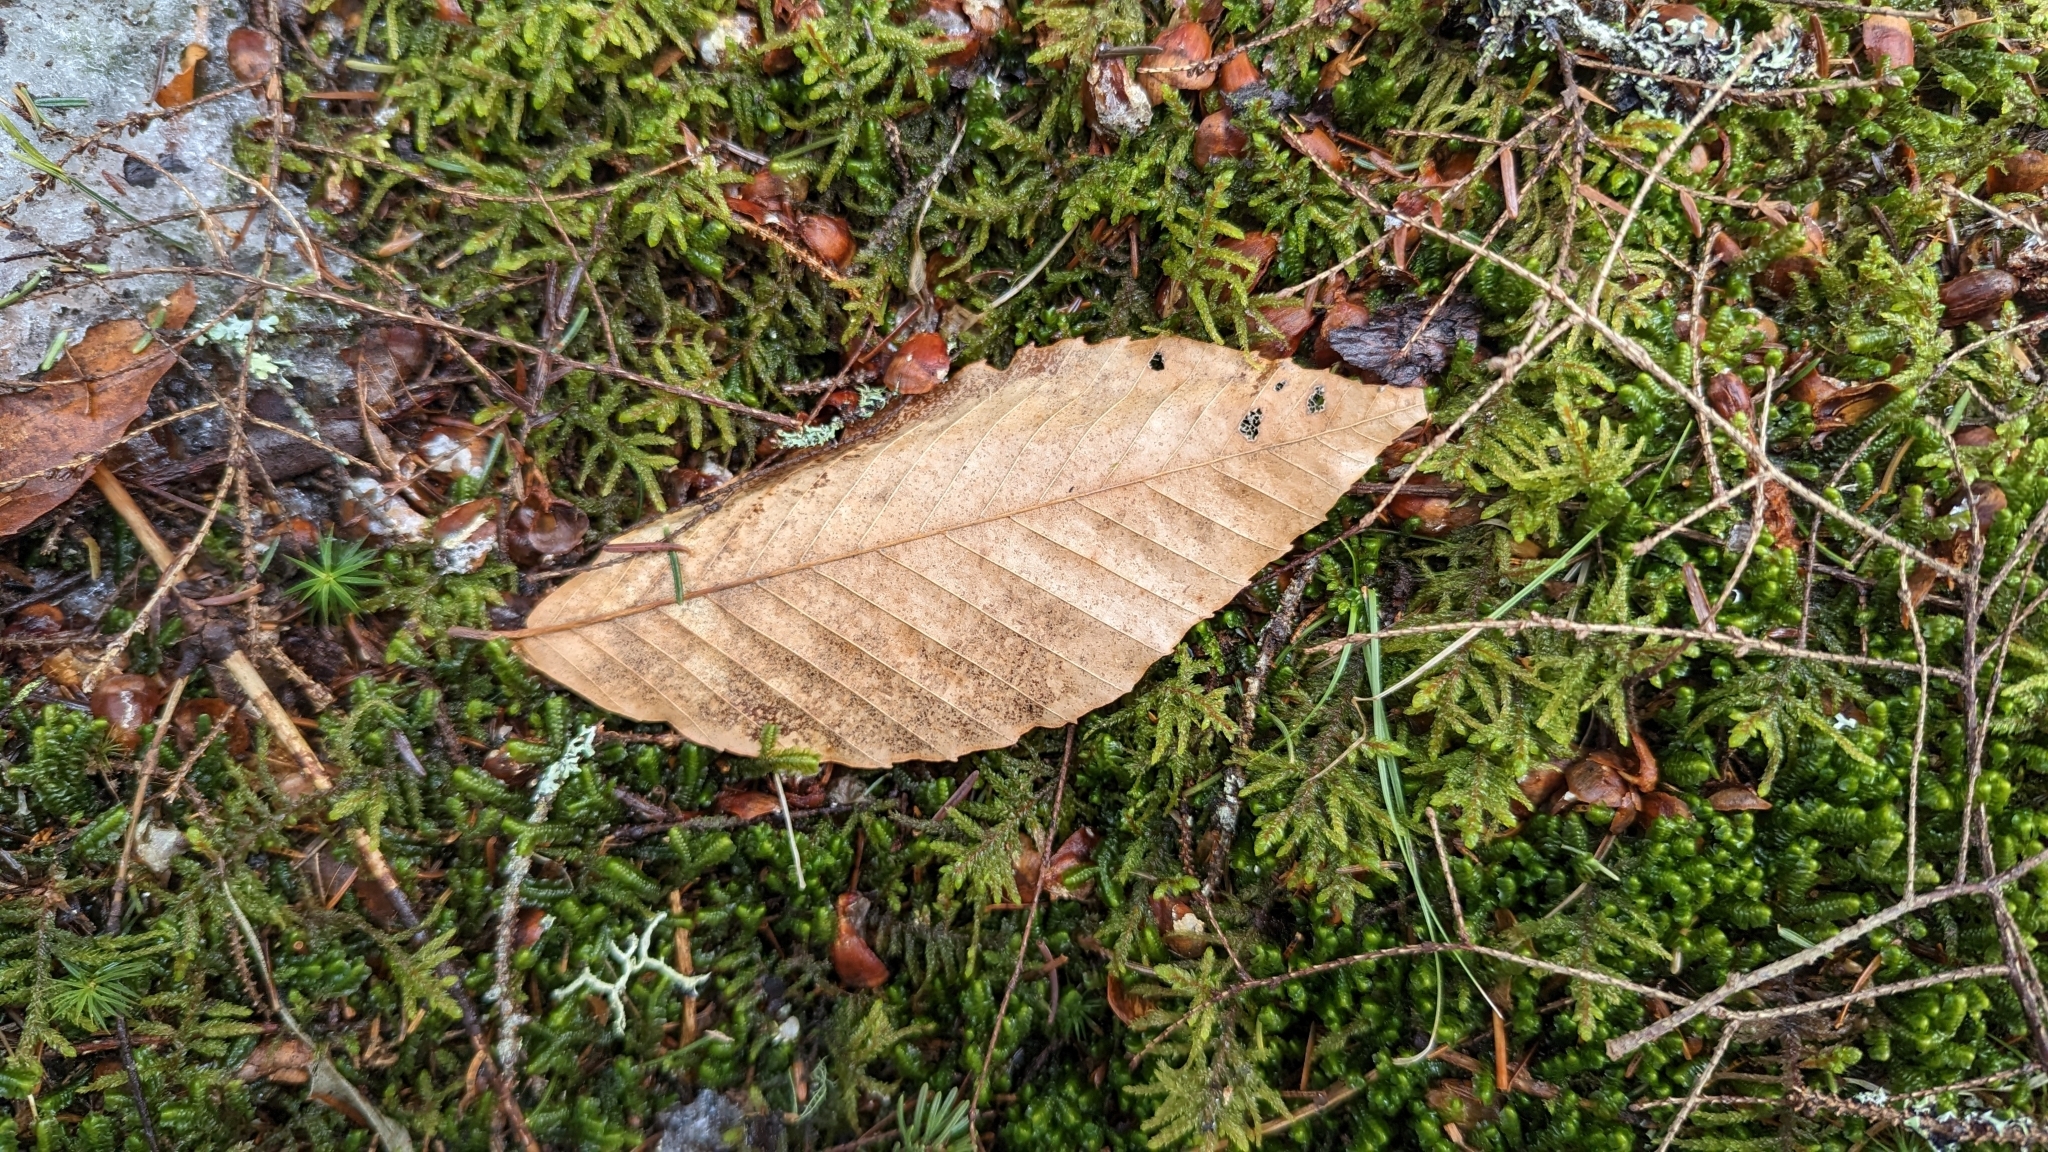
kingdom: Plantae
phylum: Tracheophyta
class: Magnoliopsida
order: Fagales
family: Fagaceae
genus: Fagus
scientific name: Fagus grandifolia
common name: American beech
